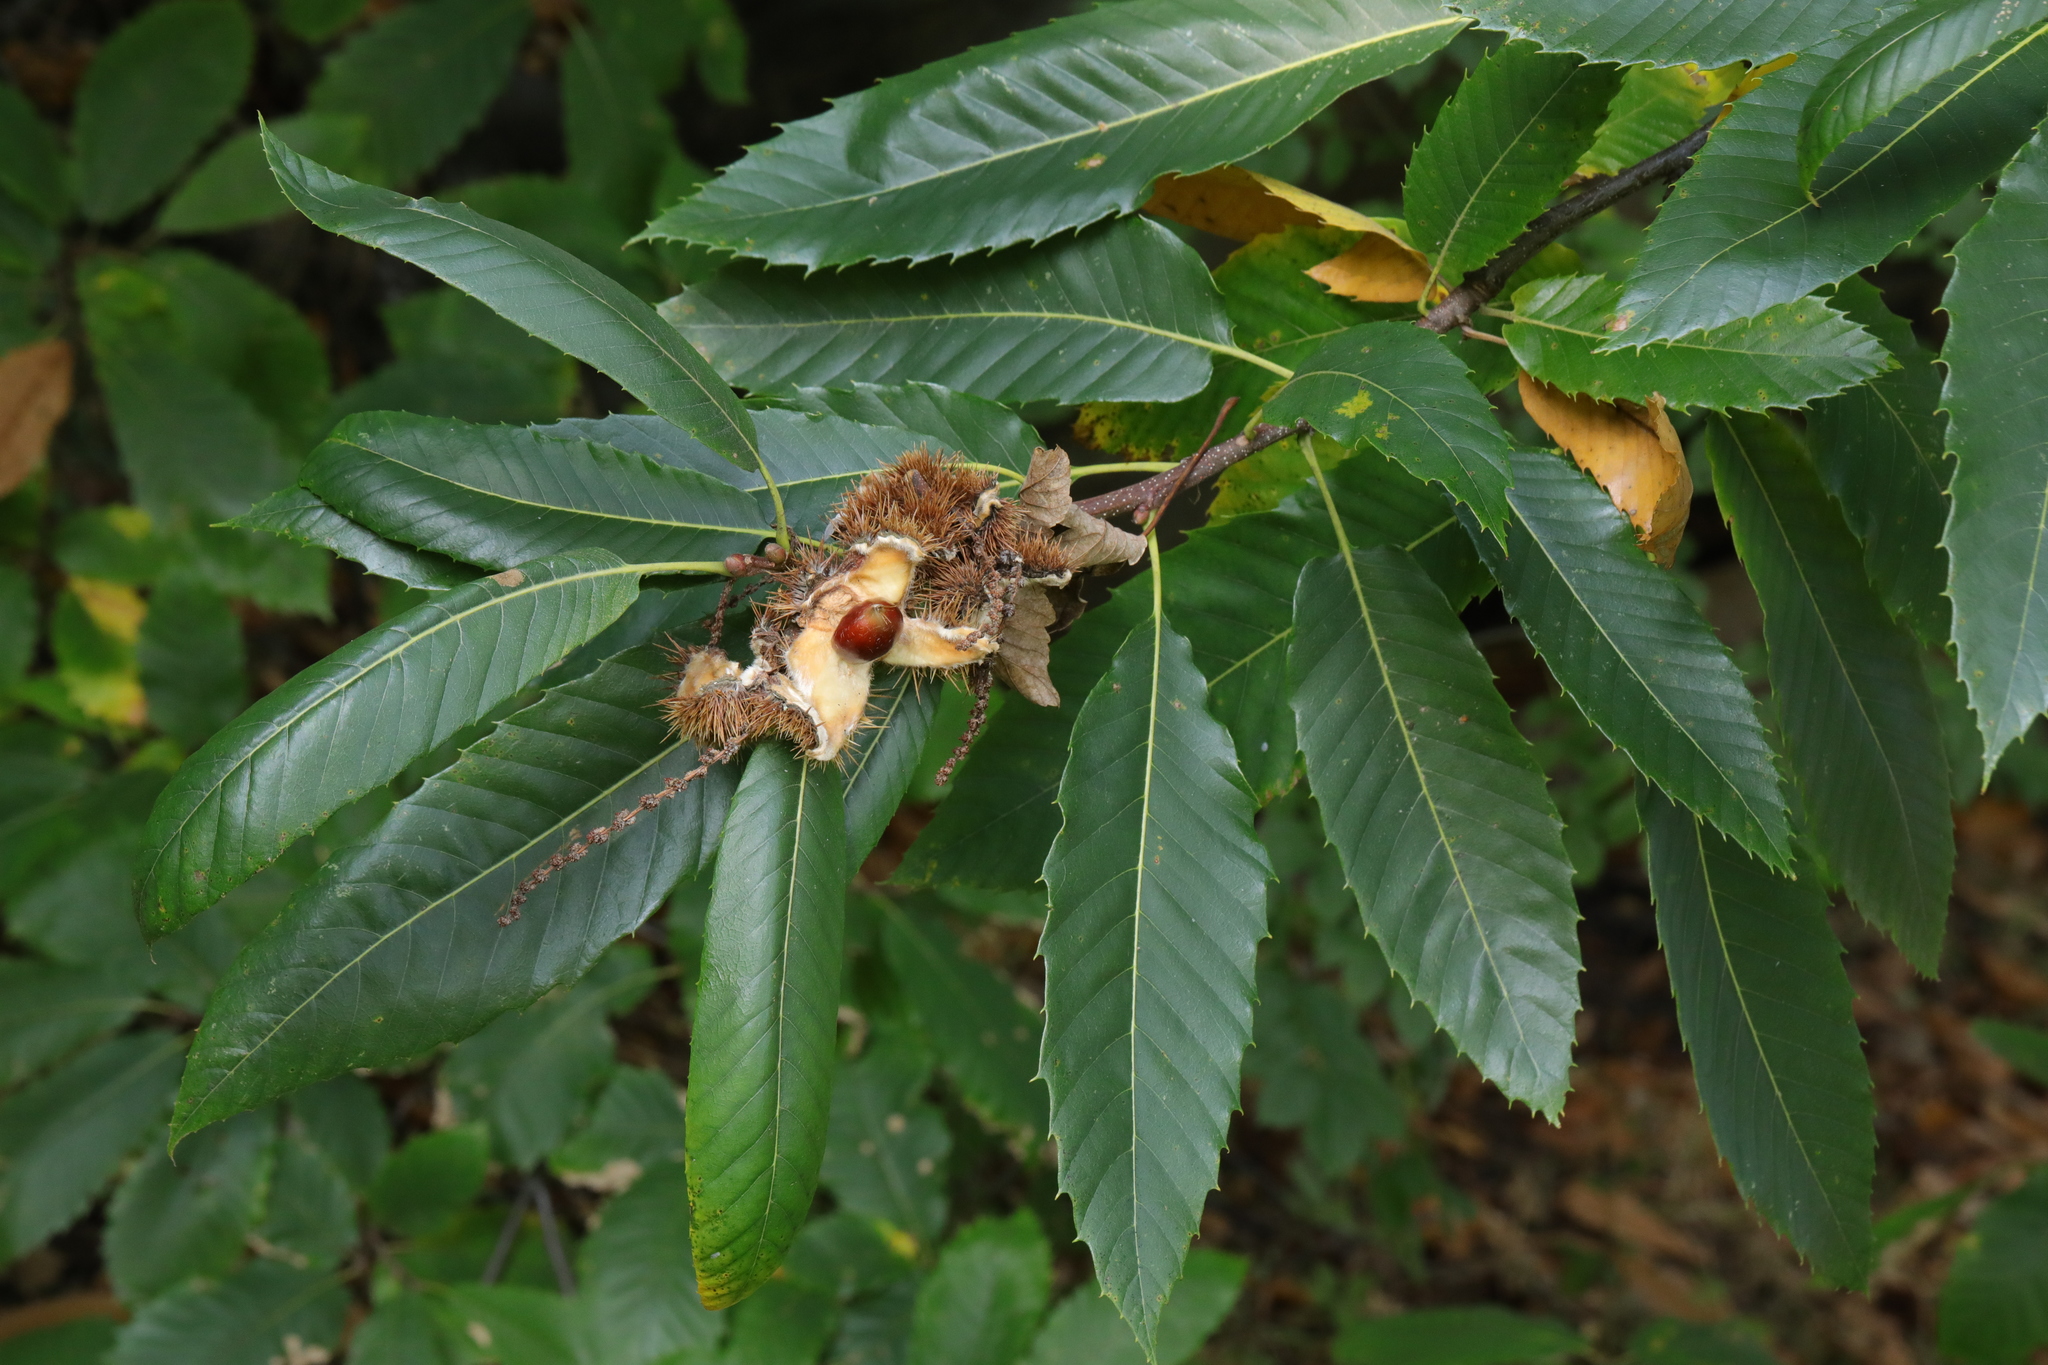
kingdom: Plantae
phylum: Tracheophyta
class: Magnoliopsida
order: Fagales
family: Fagaceae
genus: Castanea
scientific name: Castanea sativa
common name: Sweet chestnut
